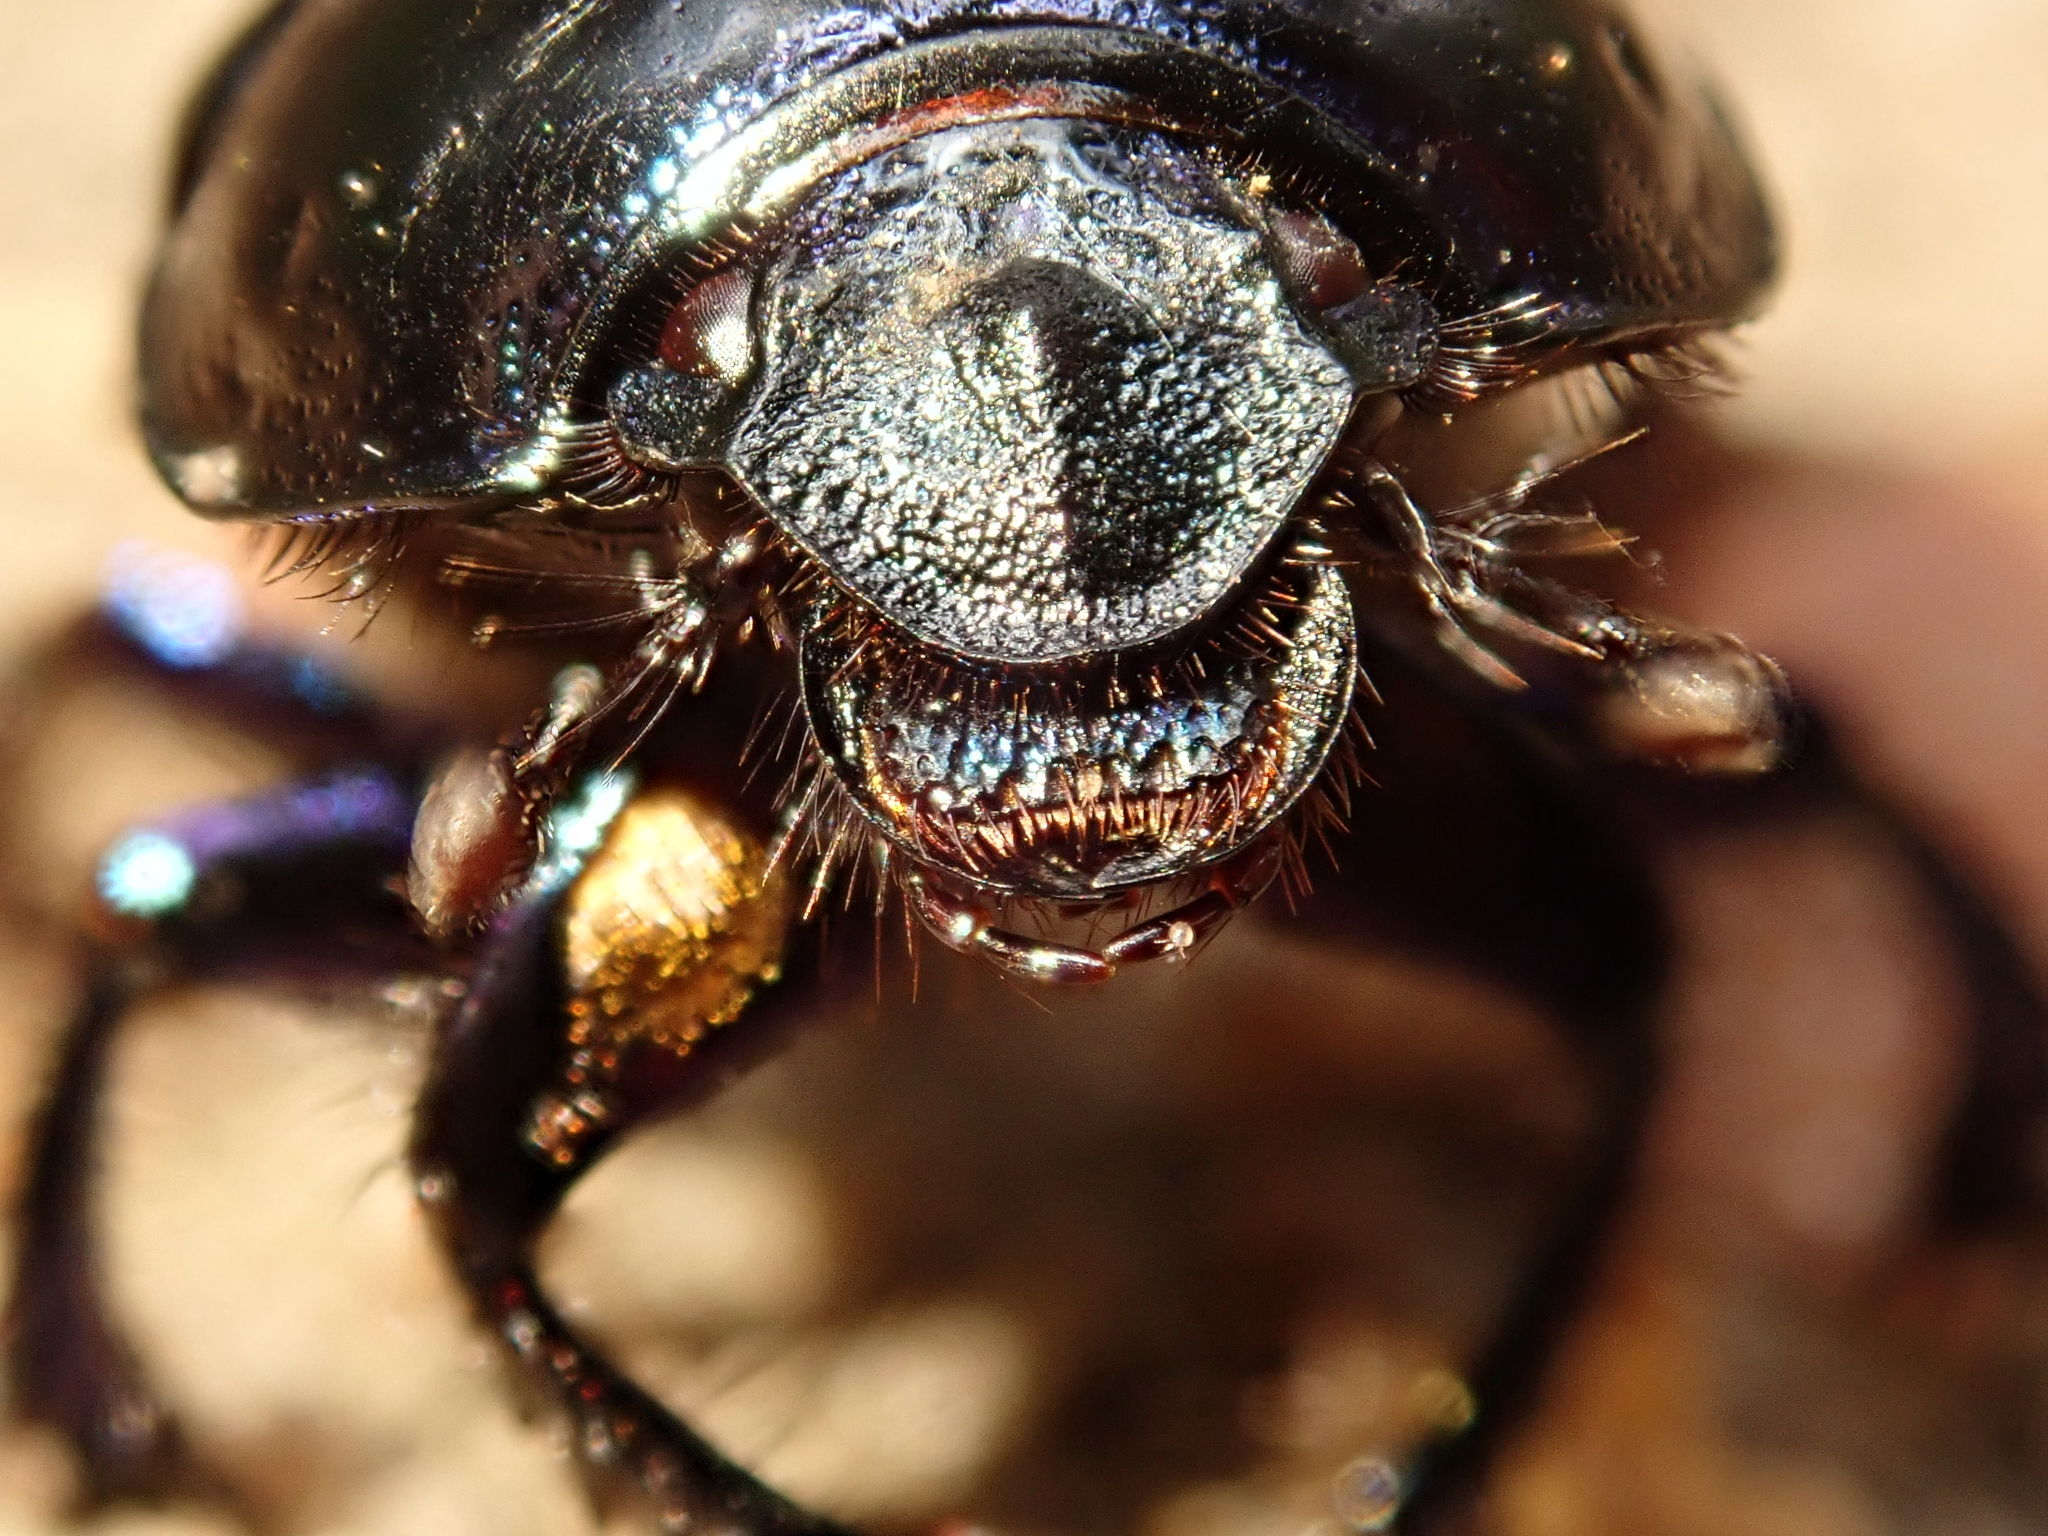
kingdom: Animalia
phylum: Arthropoda
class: Insecta
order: Coleoptera
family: Geotrupidae
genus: Anoplotrupes
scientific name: Anoplotrupes stercorosus
